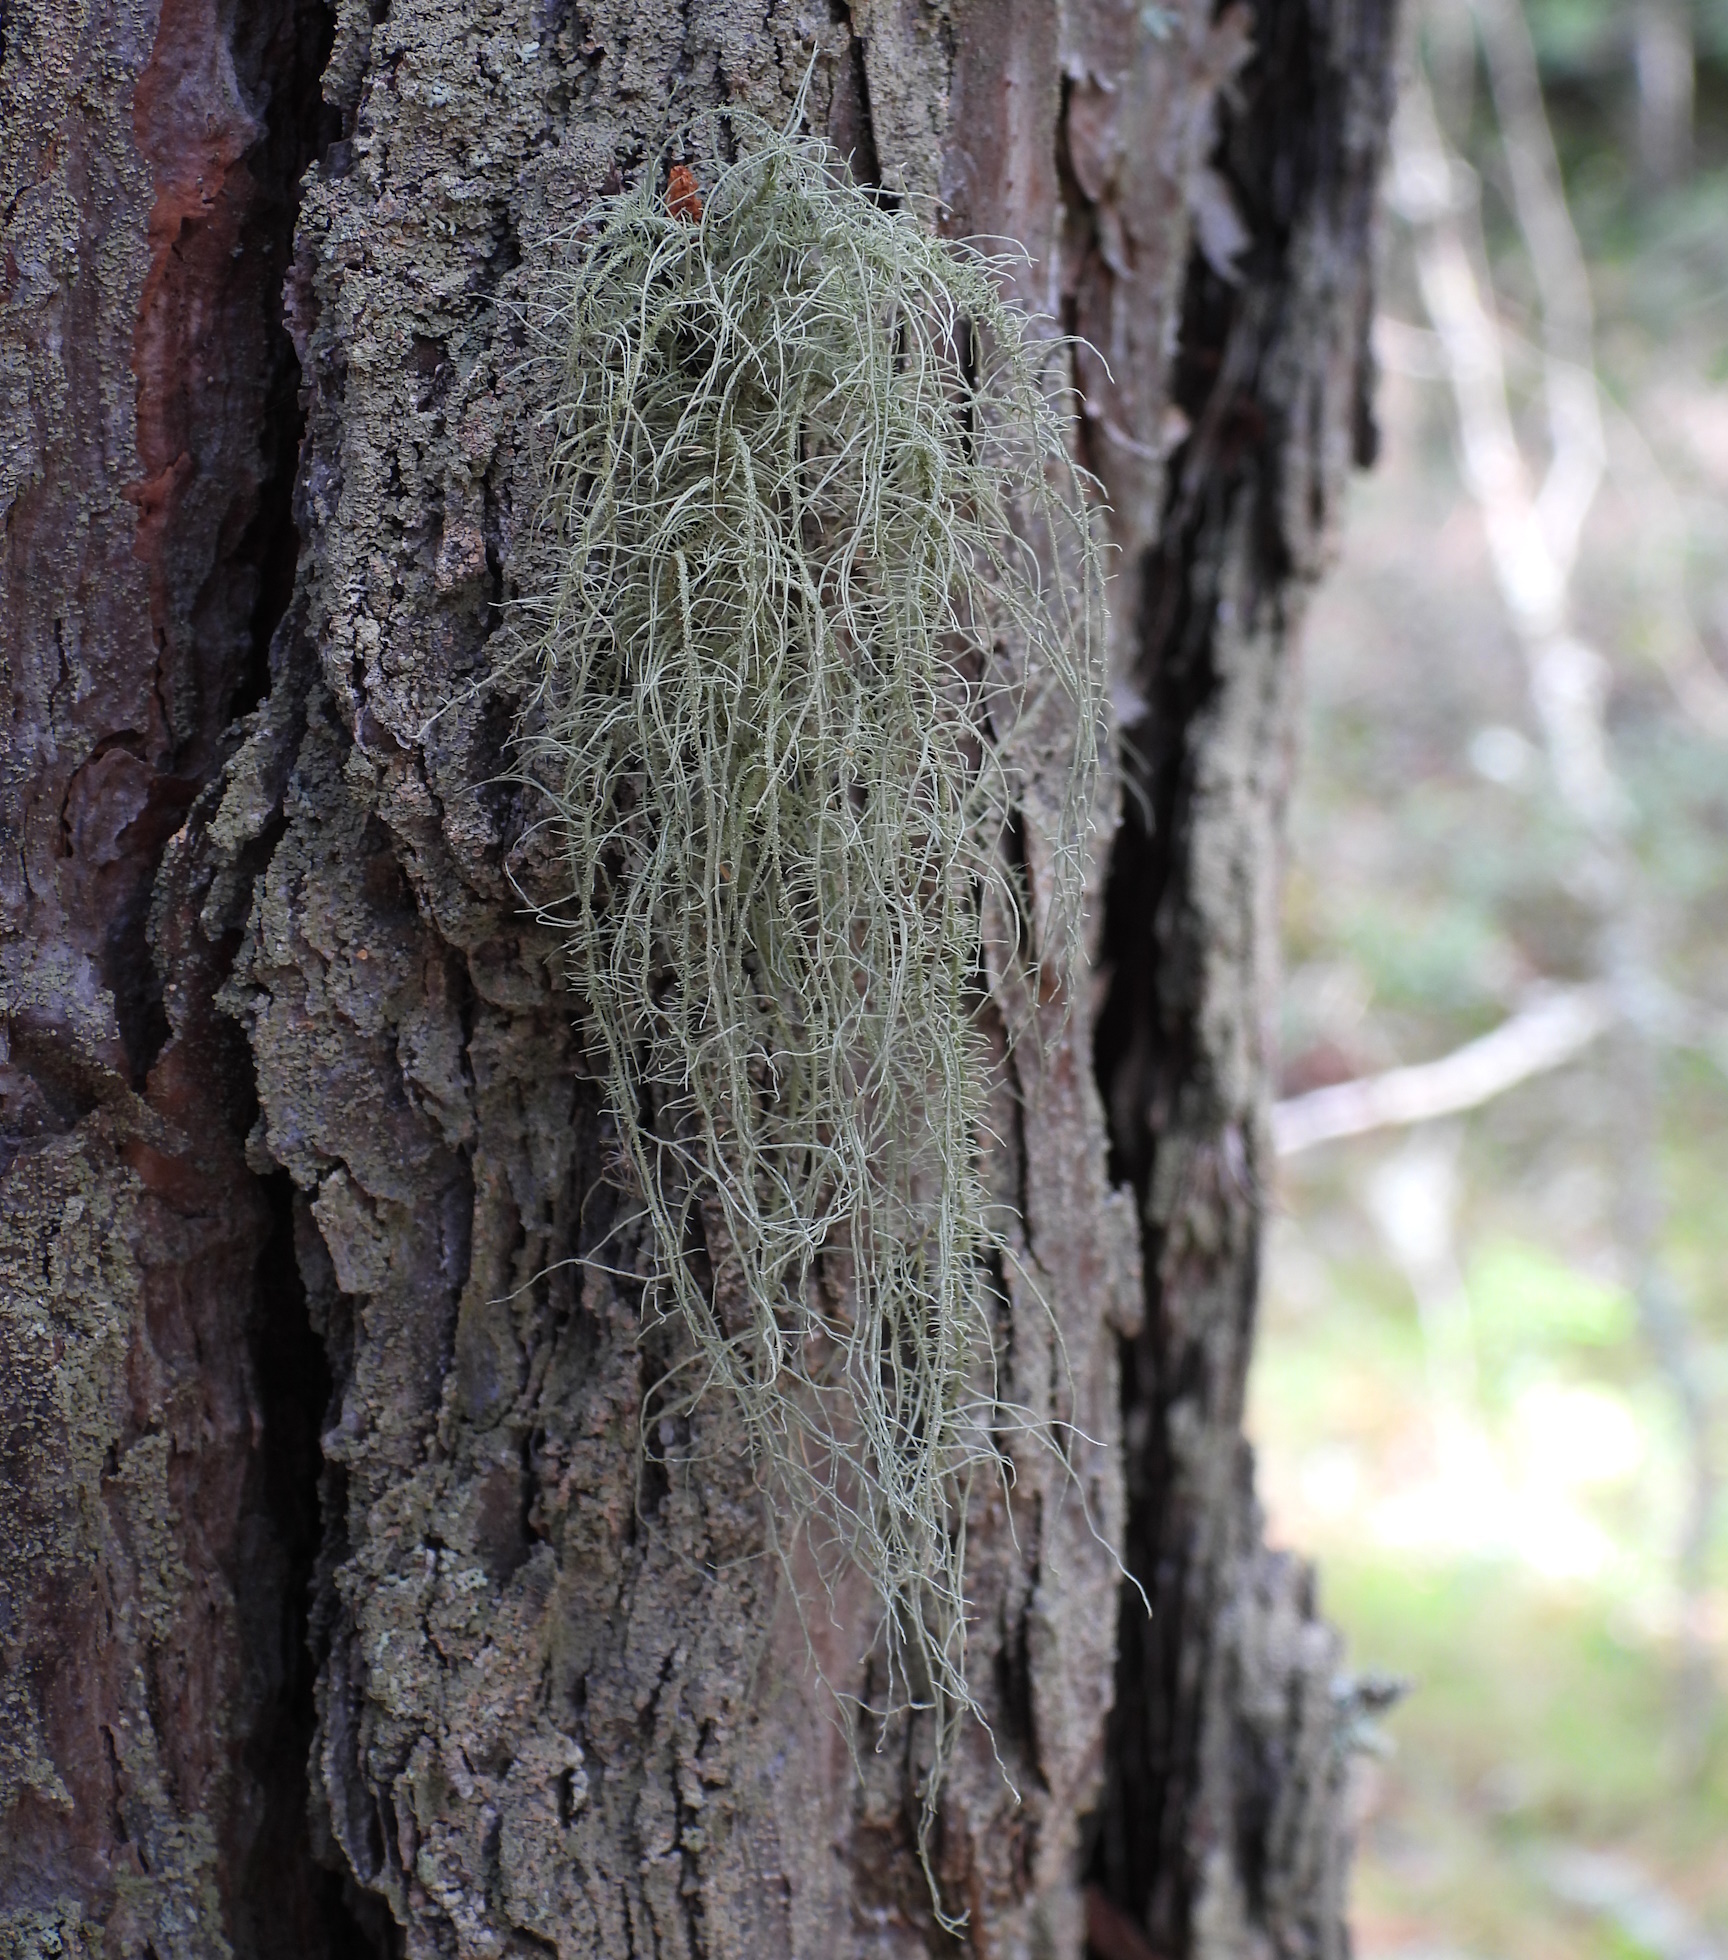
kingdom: Fungi
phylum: Ascomycota
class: Lecanoromycetes
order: Lecanorales
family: Parmeliaceae
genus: Usnea
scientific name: Usnea dasopoga
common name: Fishbone beard lichen
